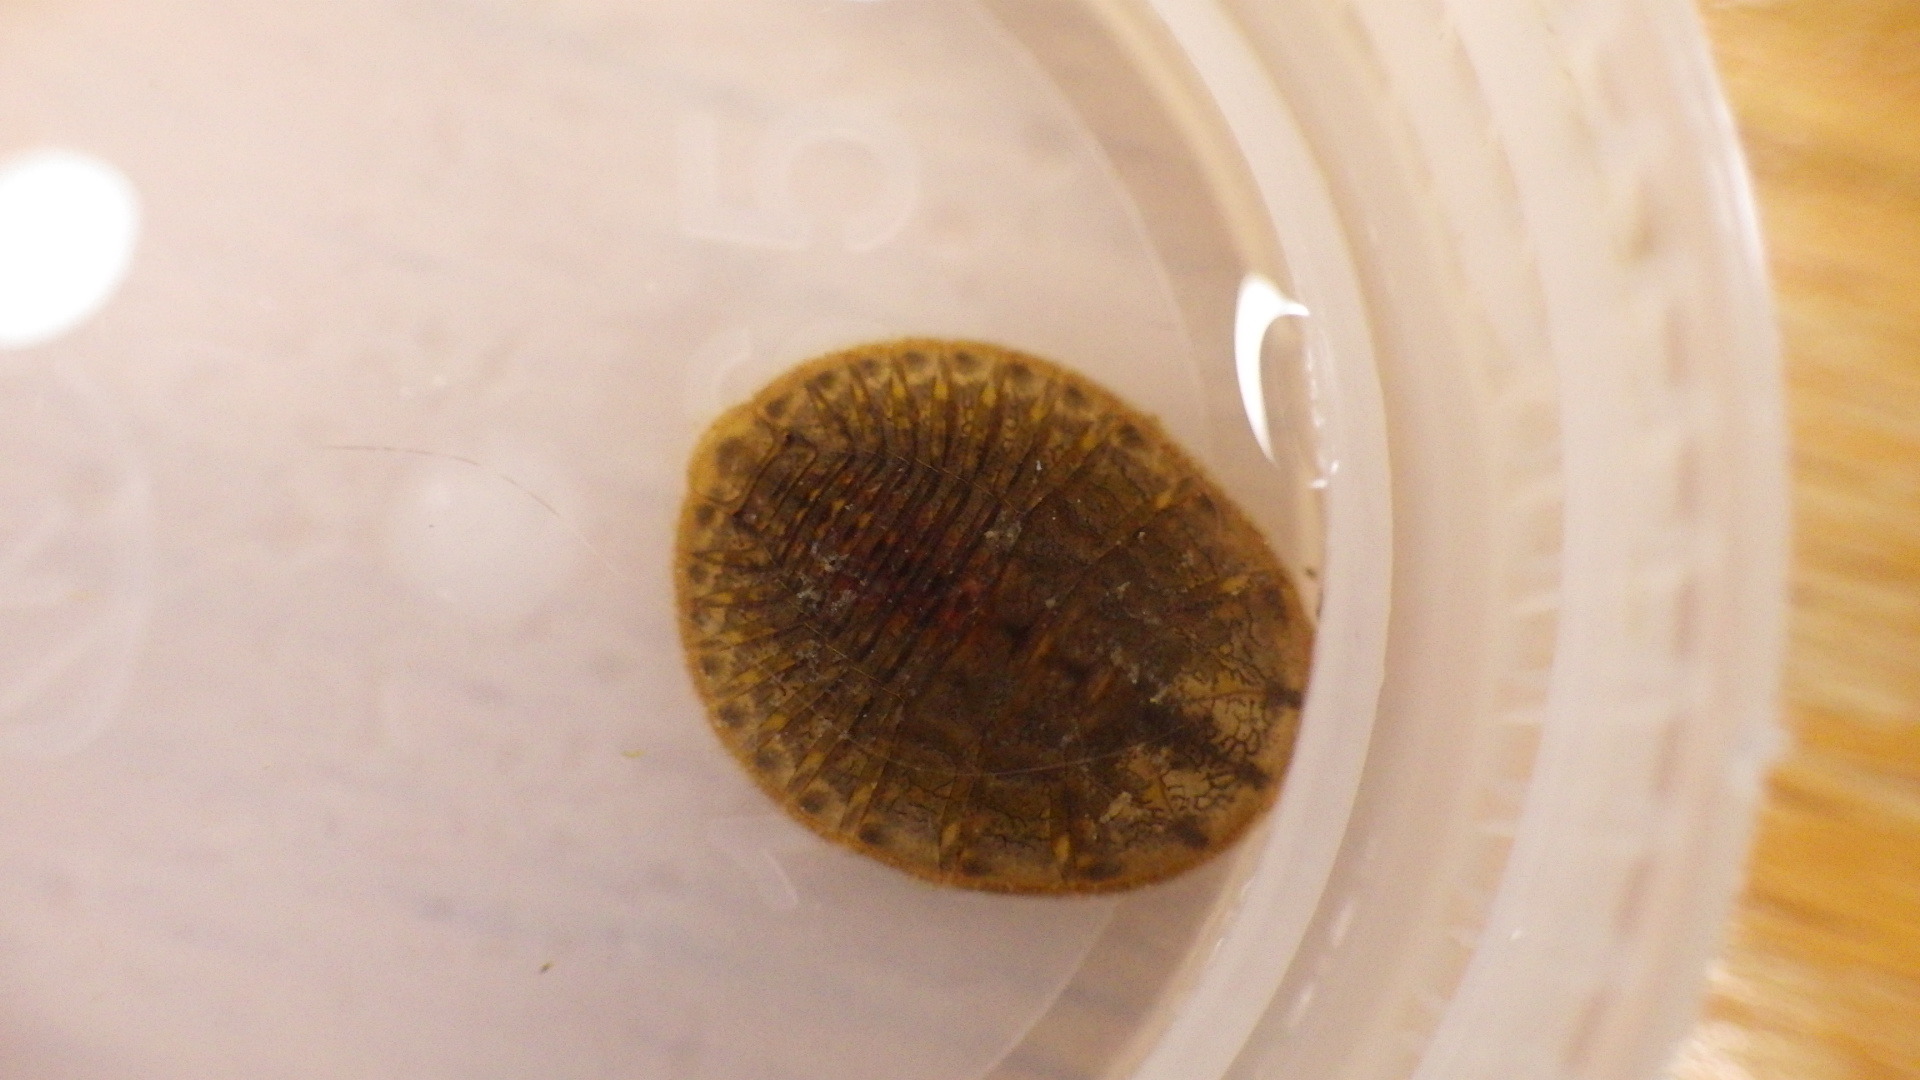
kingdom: Animalia
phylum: Arthropoda
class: Insecta
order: Coleoptera
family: Psephenidae
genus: Psephenus
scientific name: Psephenus herricki
